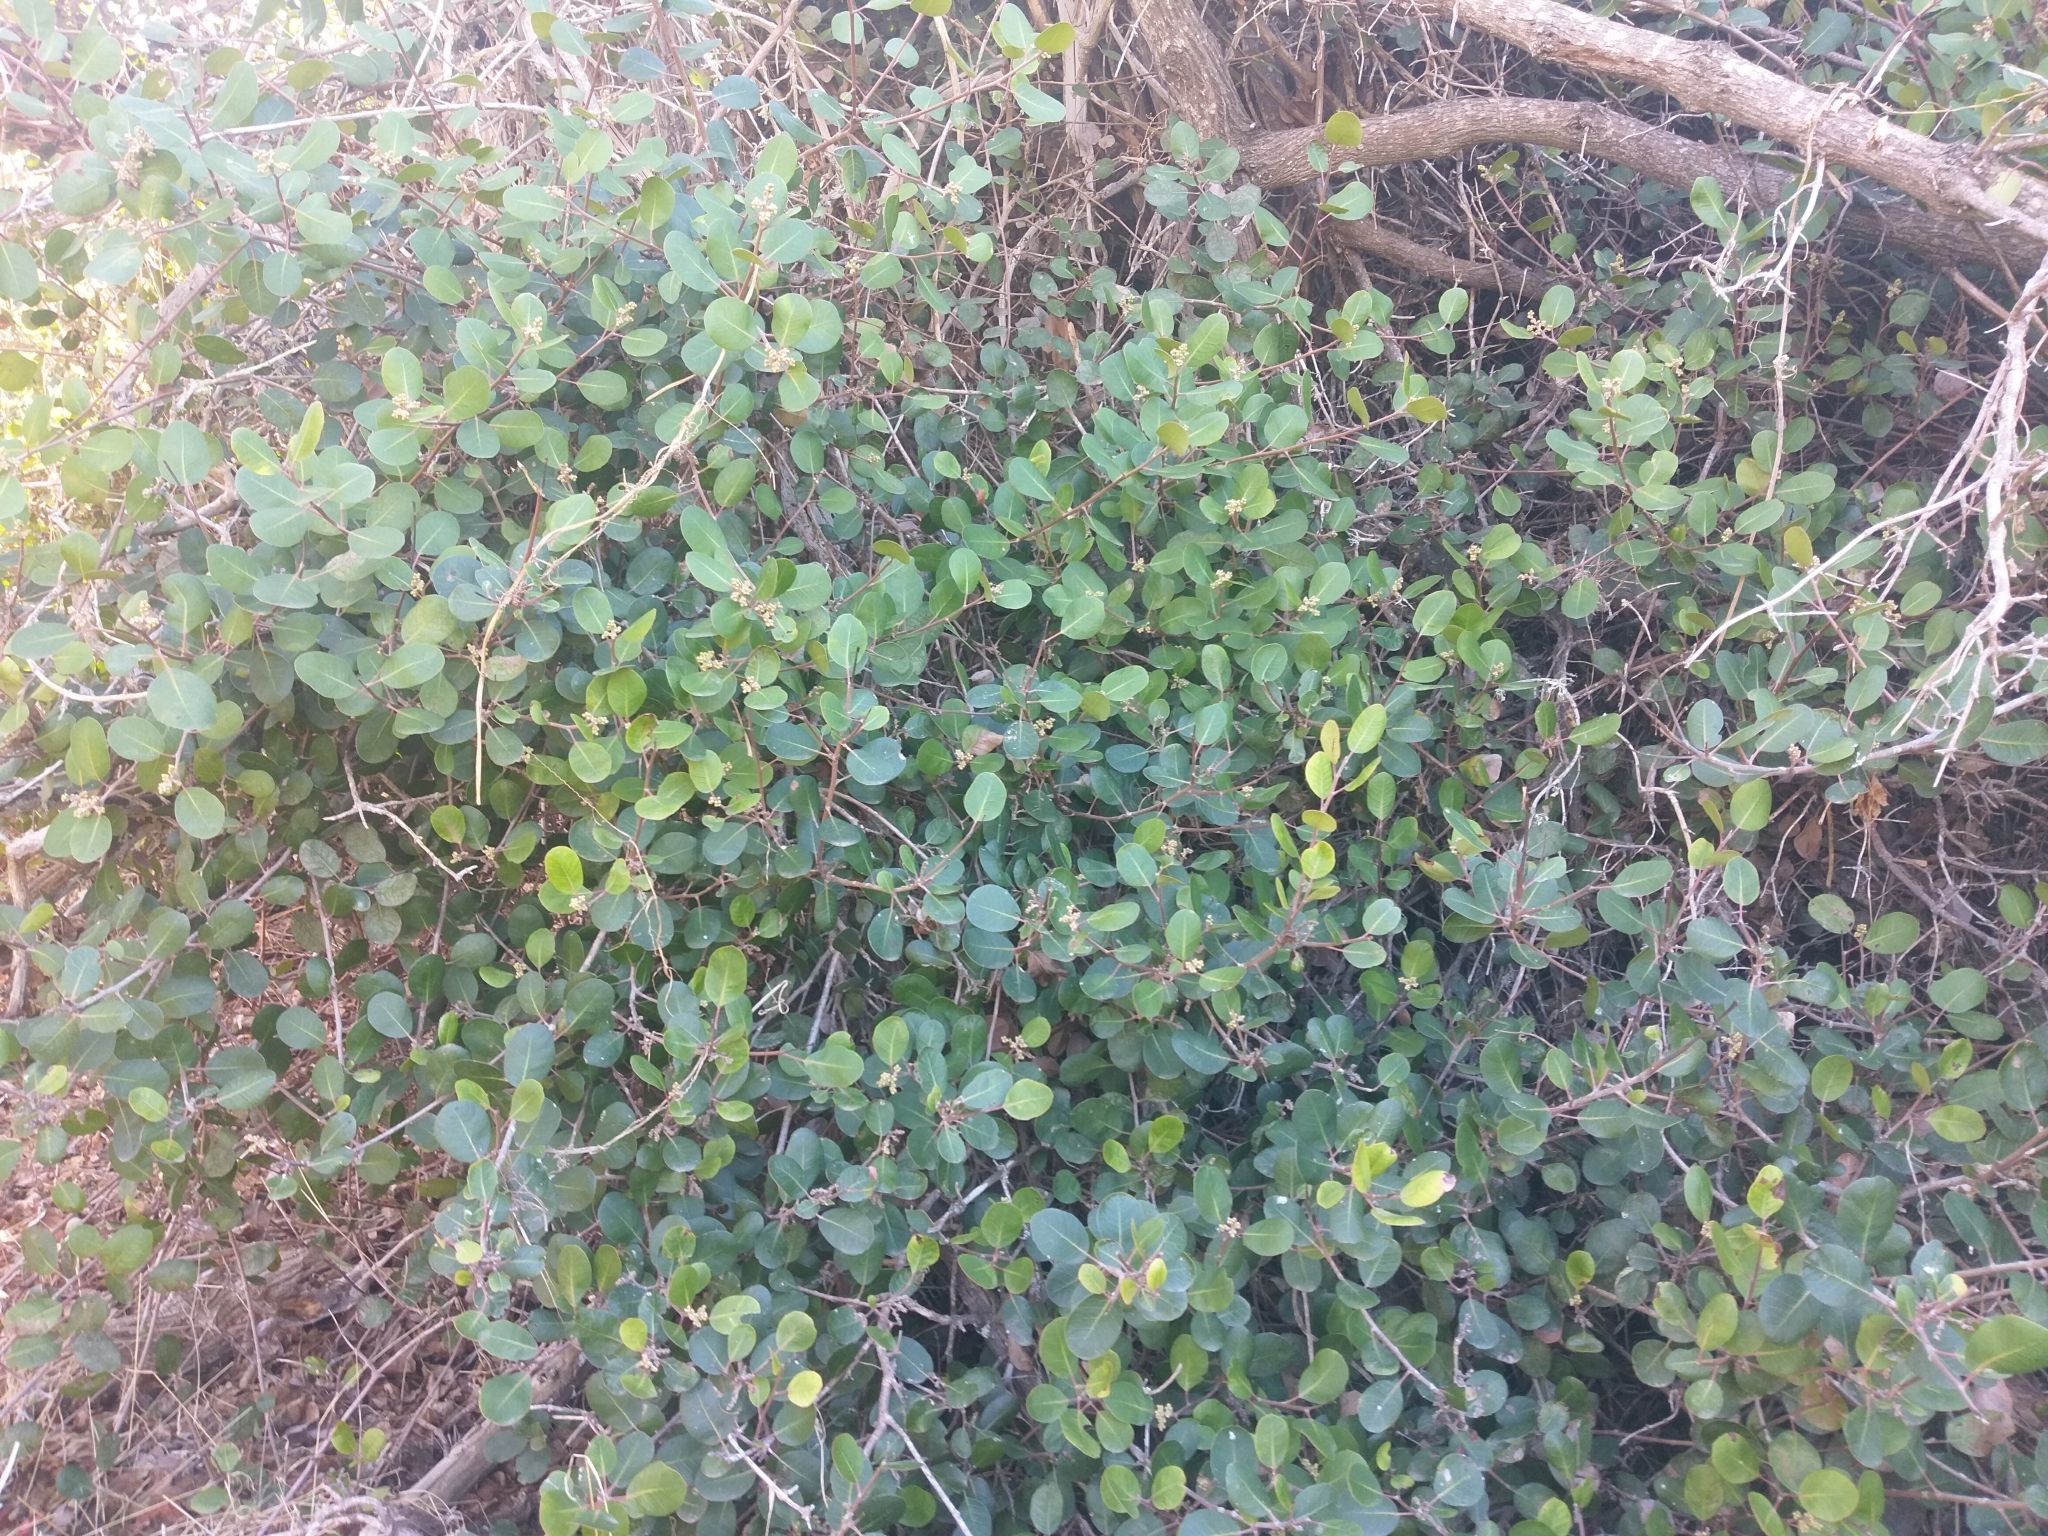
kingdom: Plantae
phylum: Tracheophyta
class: Magnoliopsida
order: Sapindales
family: Anacardiaceae
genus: Rhus
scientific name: Rhus integrifolia
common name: Lemonade sumac
